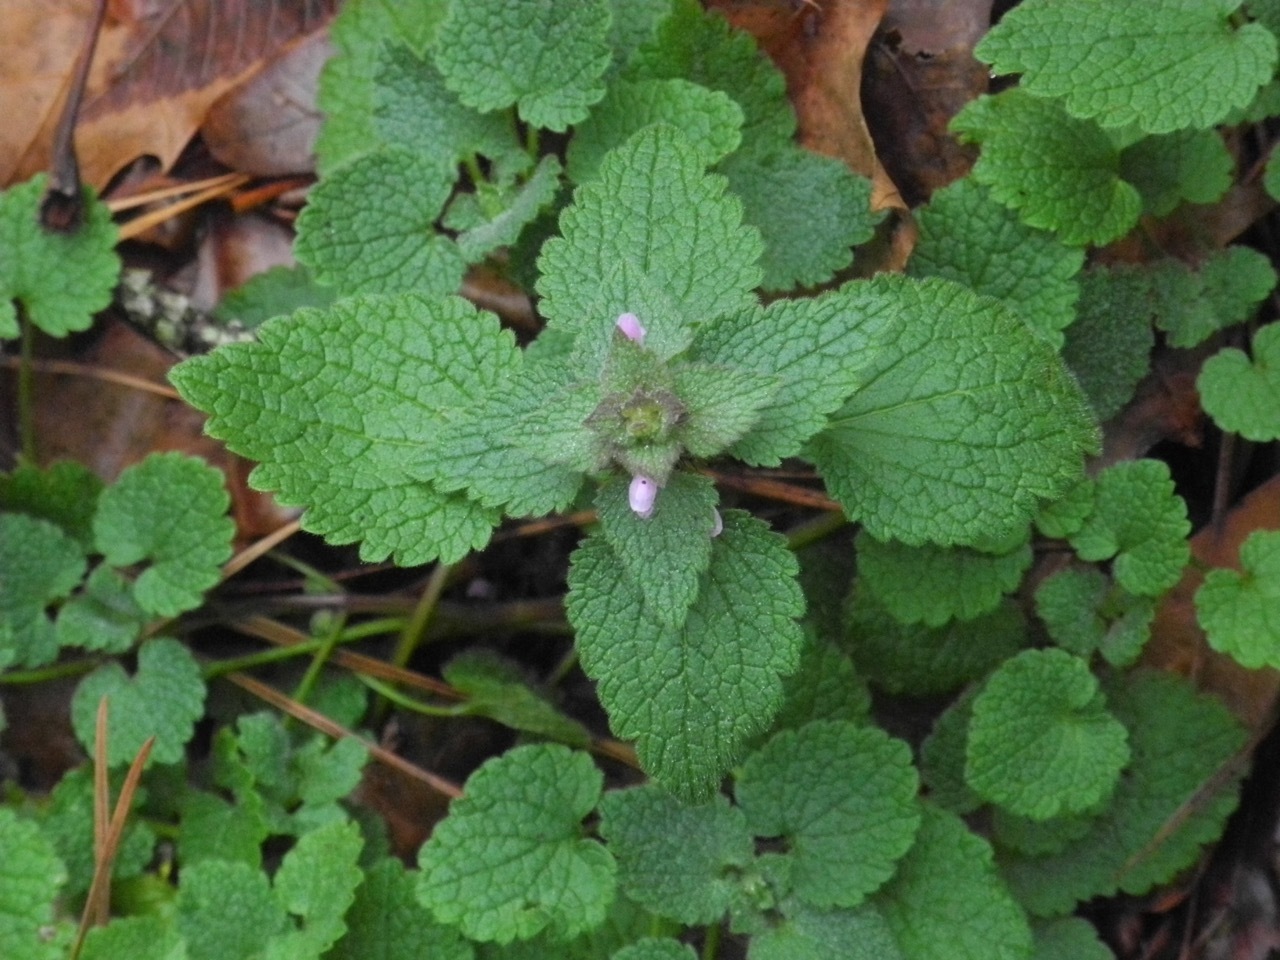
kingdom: Plantae
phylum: Tracheophyta
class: Magnoliopsida
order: Lamiales
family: Lamiaceae
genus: Lamium
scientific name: Lamium purpureum
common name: Red dead-nettle
